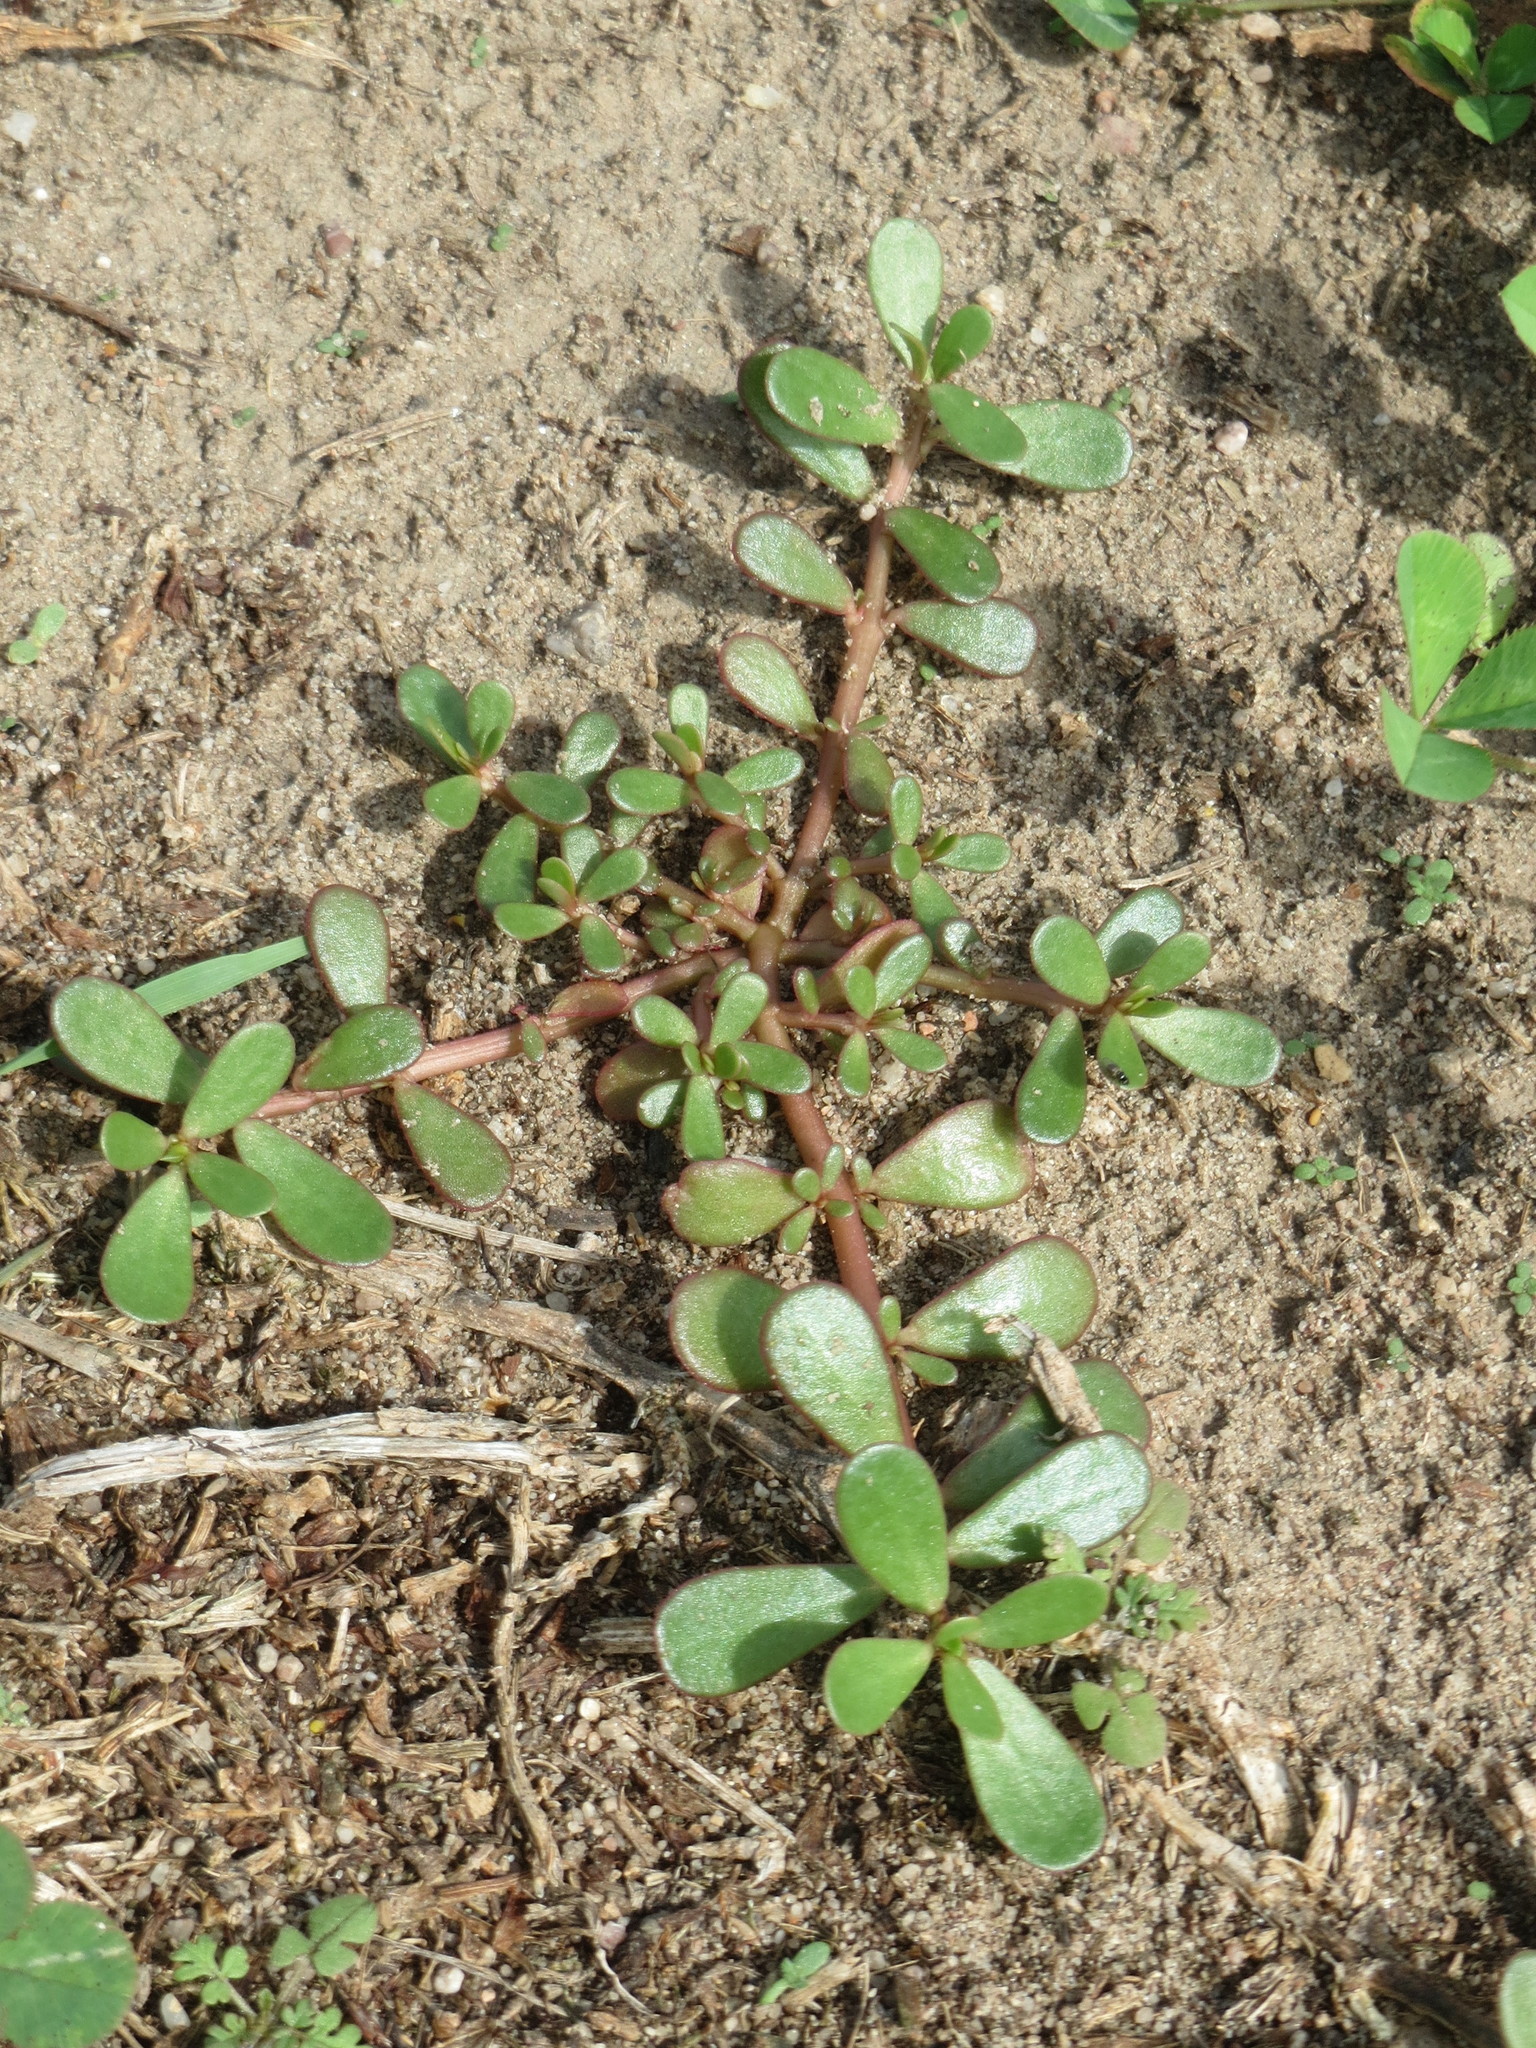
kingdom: Plantae
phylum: Tracheophyta
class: Magnoliopsida
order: Caryophyllales
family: Portulacaceae
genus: Portulaca
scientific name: Portulaca oleracea
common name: Common purslane
